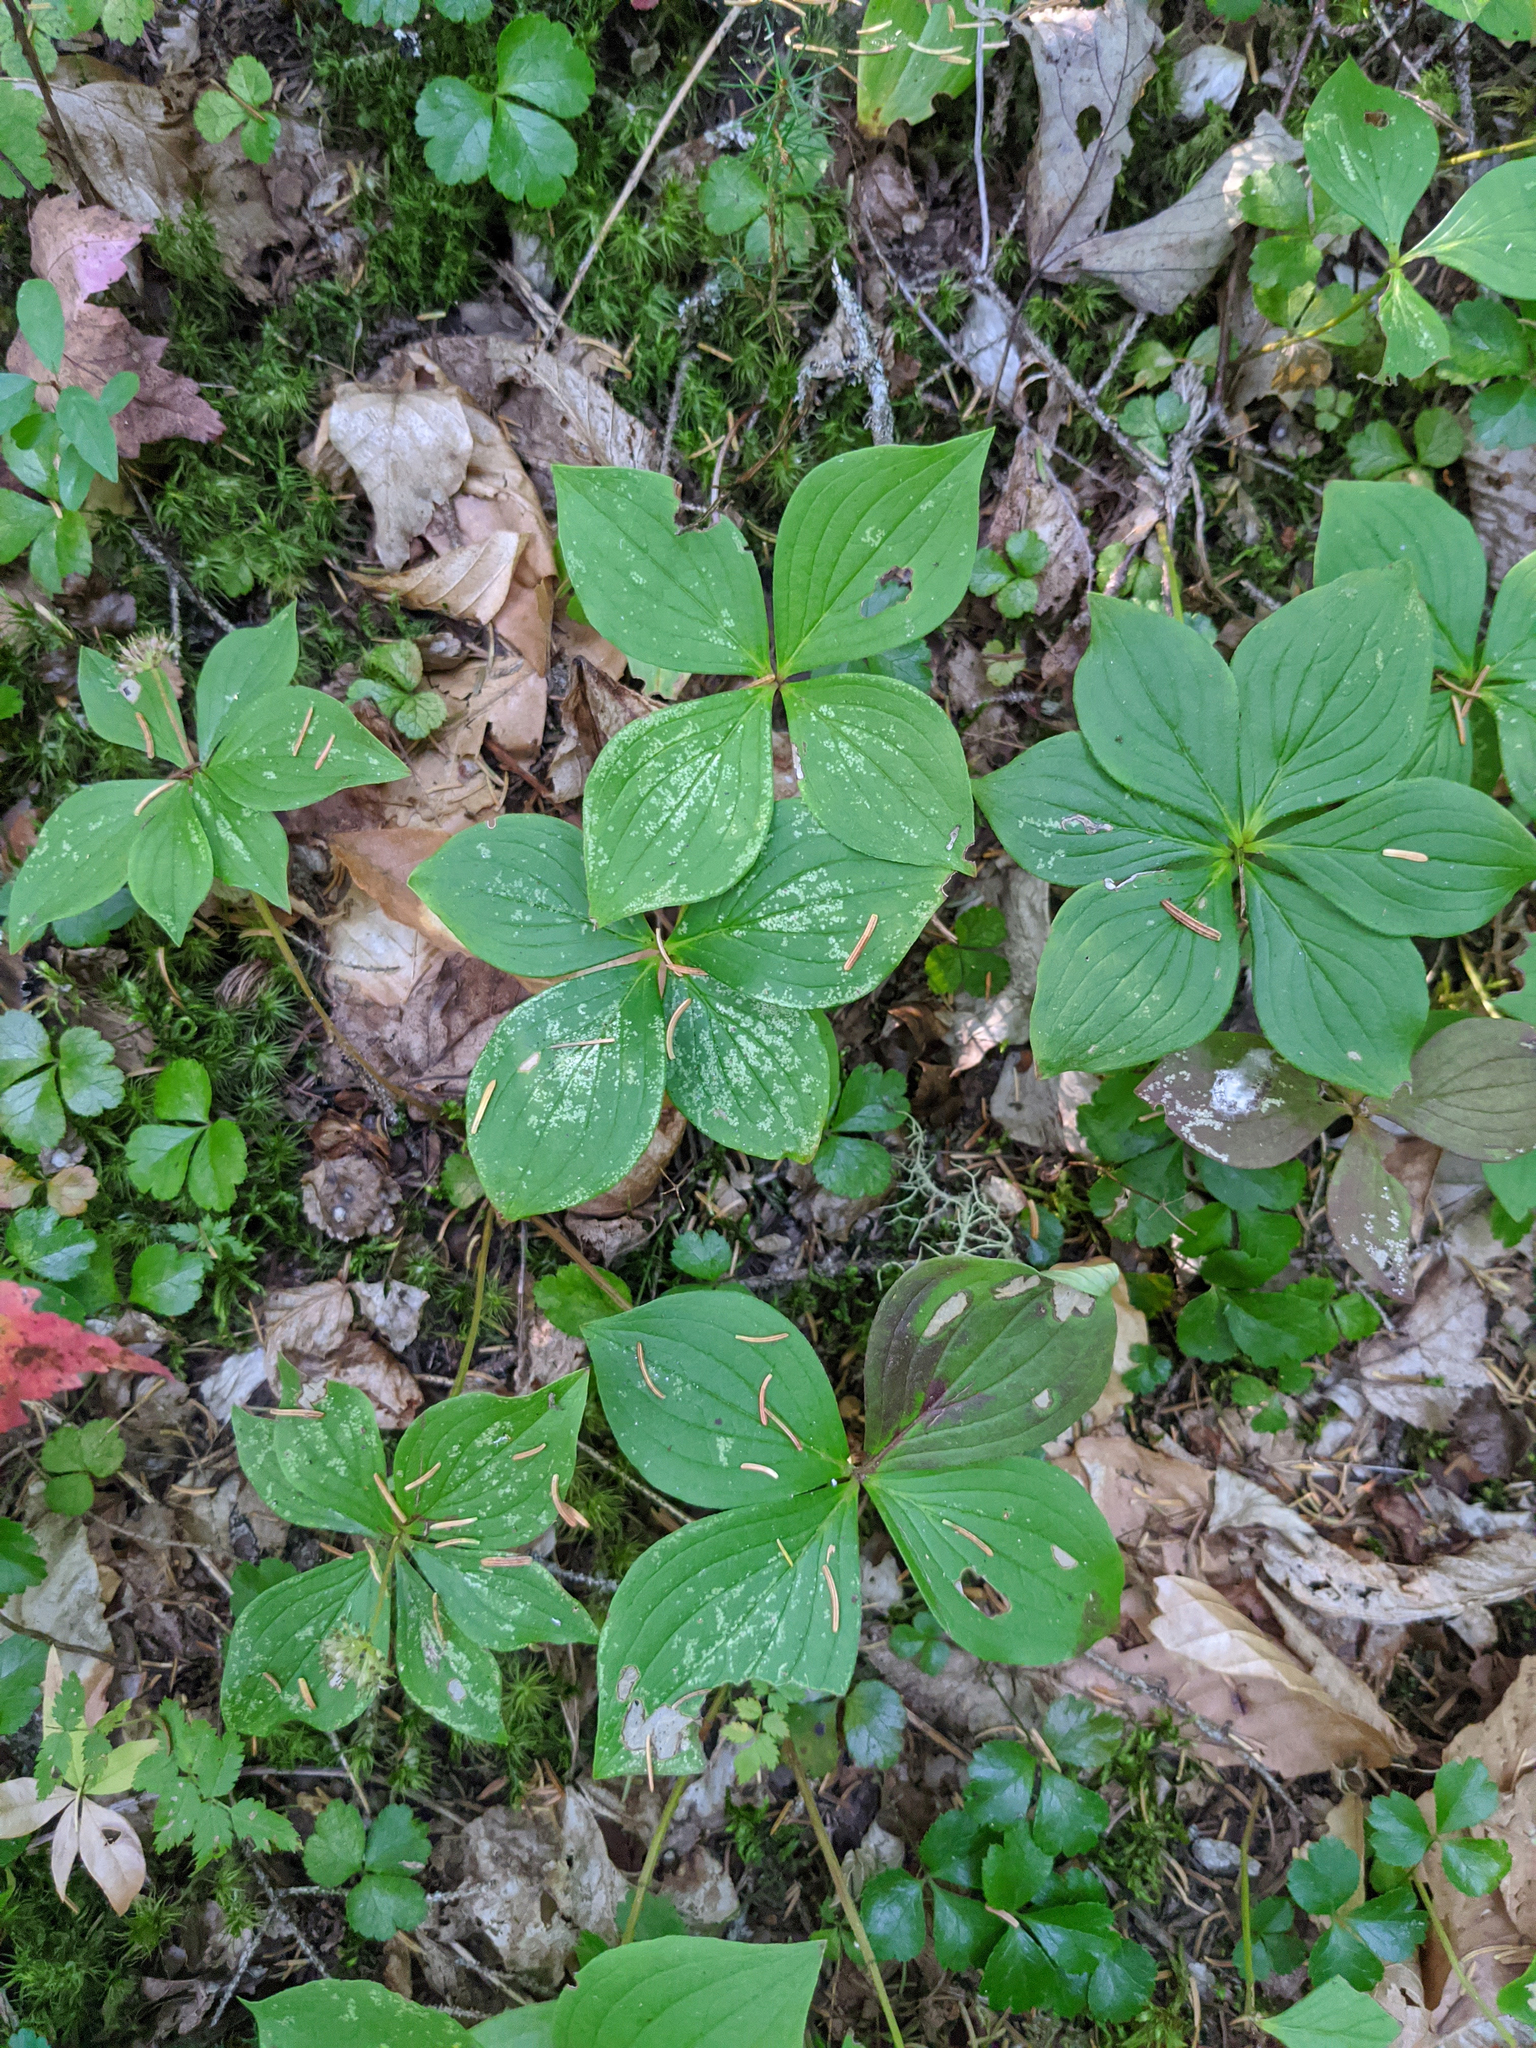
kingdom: Plantae
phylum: Tracheophyta
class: Magnoliopsida
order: Cornales
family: Cornaceae
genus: Cornus
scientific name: Cornus canadensis
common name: Creeping dogwood
